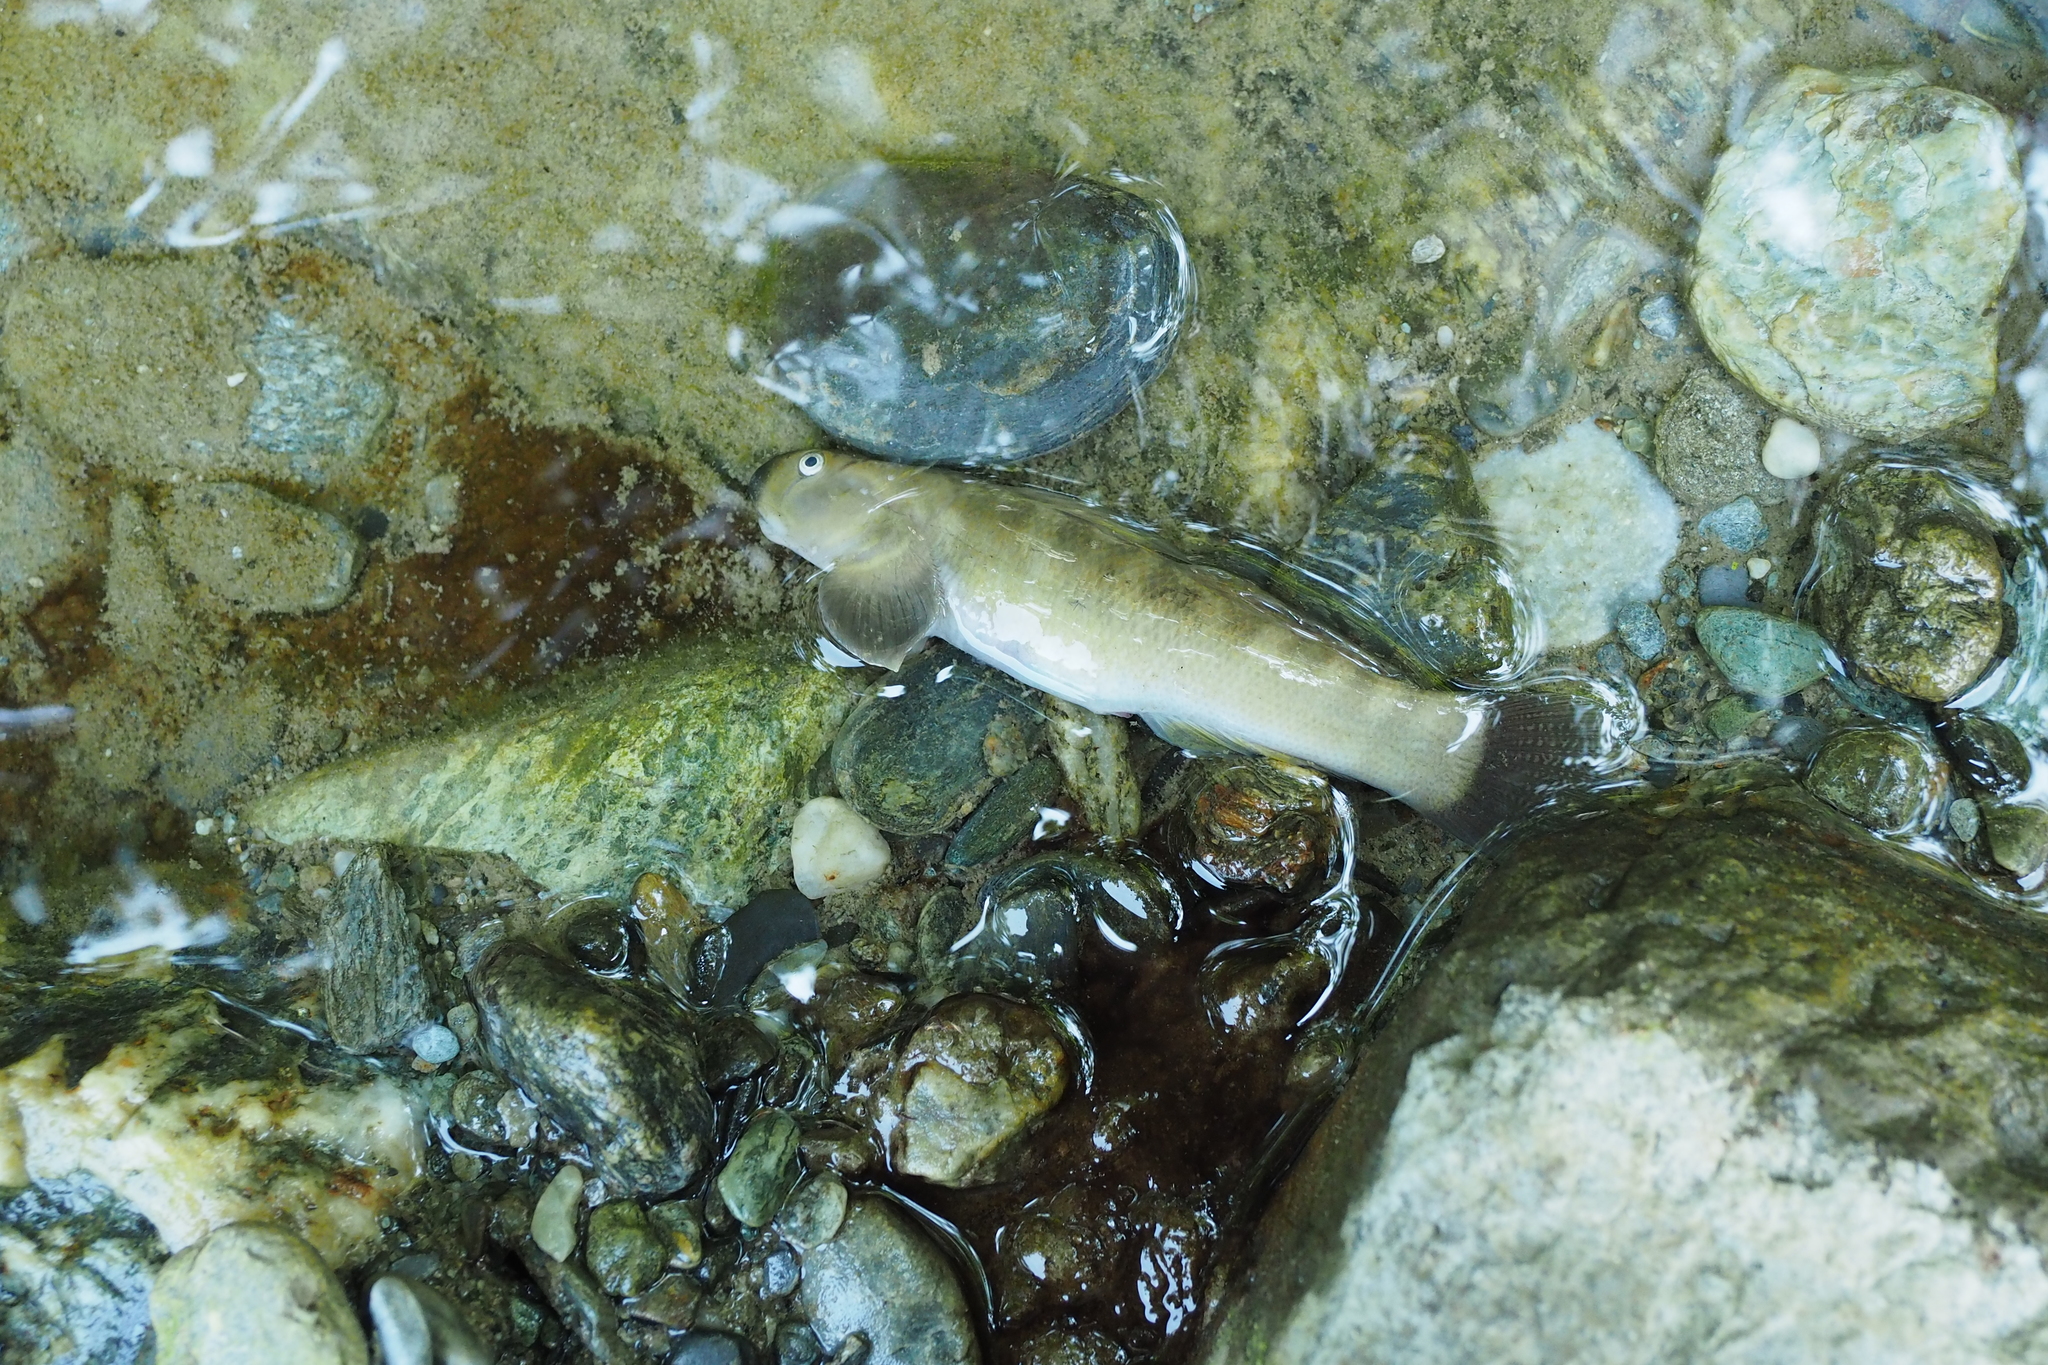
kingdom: Animalia
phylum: Chordata
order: Perciformes
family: Gobiidae
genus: Sicyopterus
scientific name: Sicyopterus japonicus
